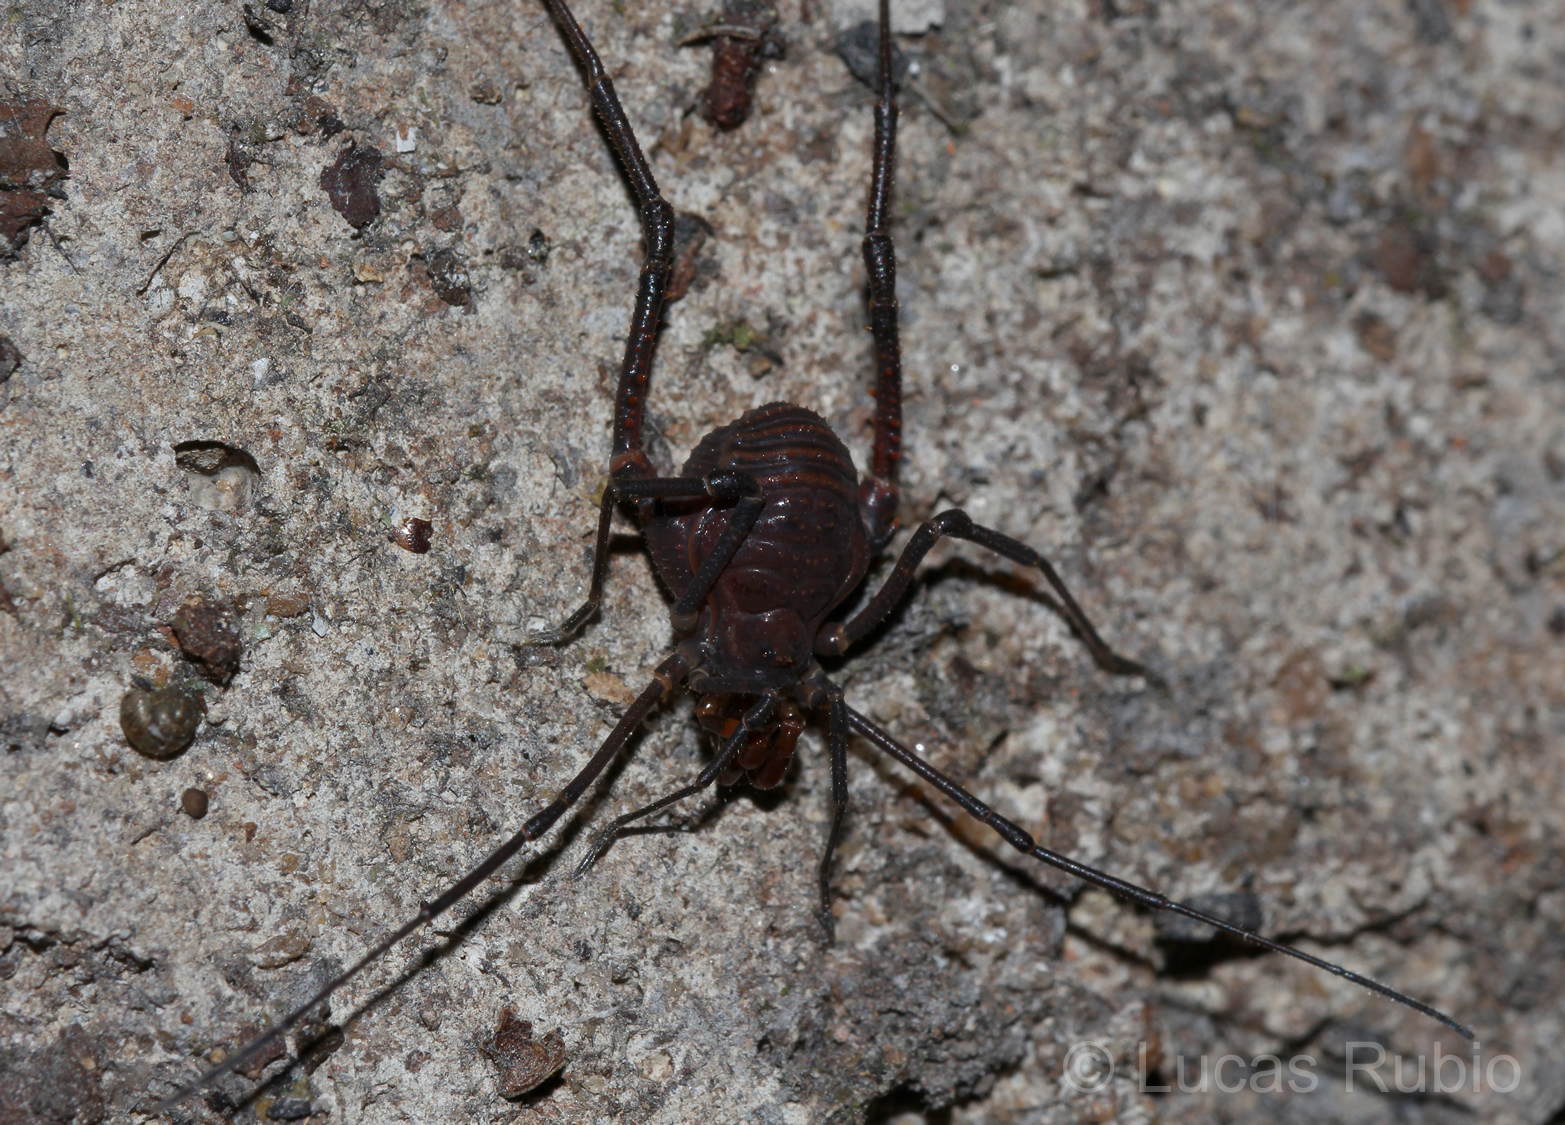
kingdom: Animalia
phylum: Arthropoda
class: Arachnida
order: Opiliones
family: Gonyleptidae
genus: Opisthoplatus
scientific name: Opisthoplatus vegetus
